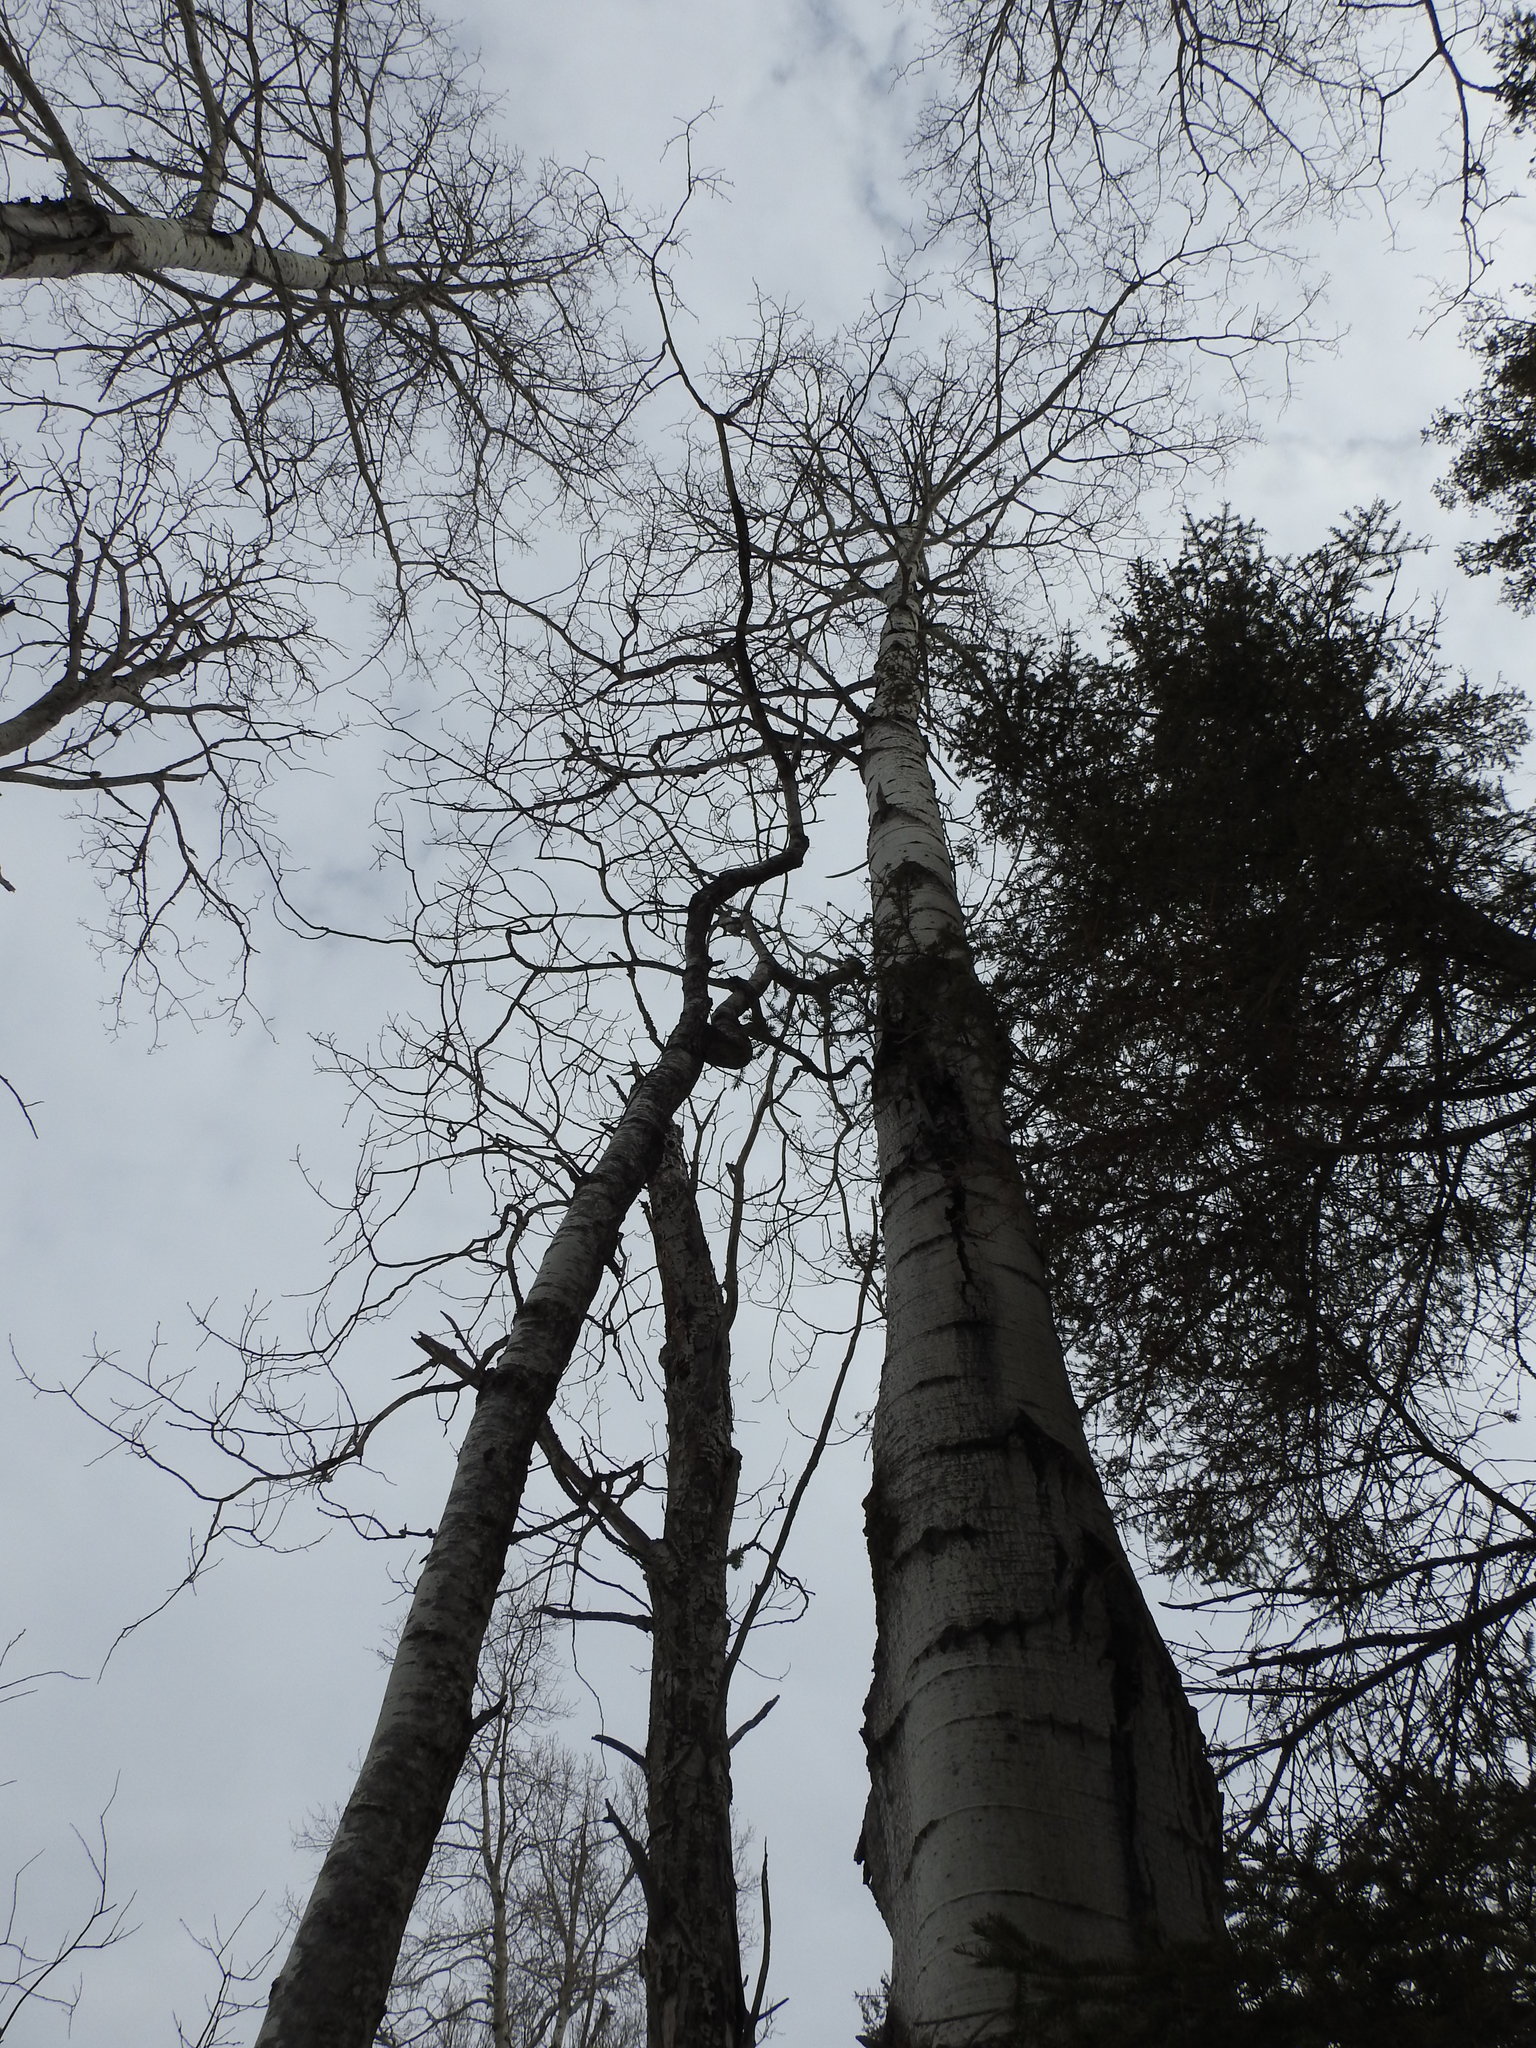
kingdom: Plantae
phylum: Tracheophyta
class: Magnoliopsida
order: Malpighiales
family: Salicaceae
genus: Populus
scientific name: Populus tremuloides
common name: Quaking aspen
